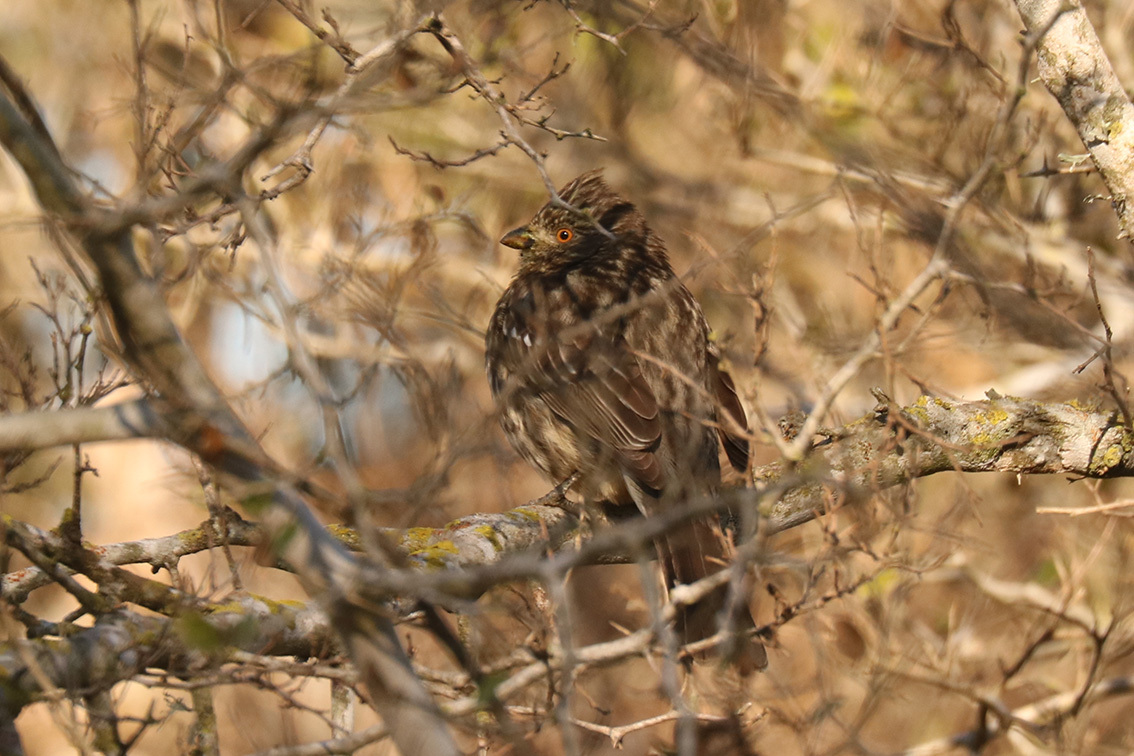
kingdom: Animalia
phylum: Chordata
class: Aves
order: Passeriformes
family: Cotingidae
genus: Phytotoma
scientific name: Phytotoma rutila
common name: White-tipped plantcutter
